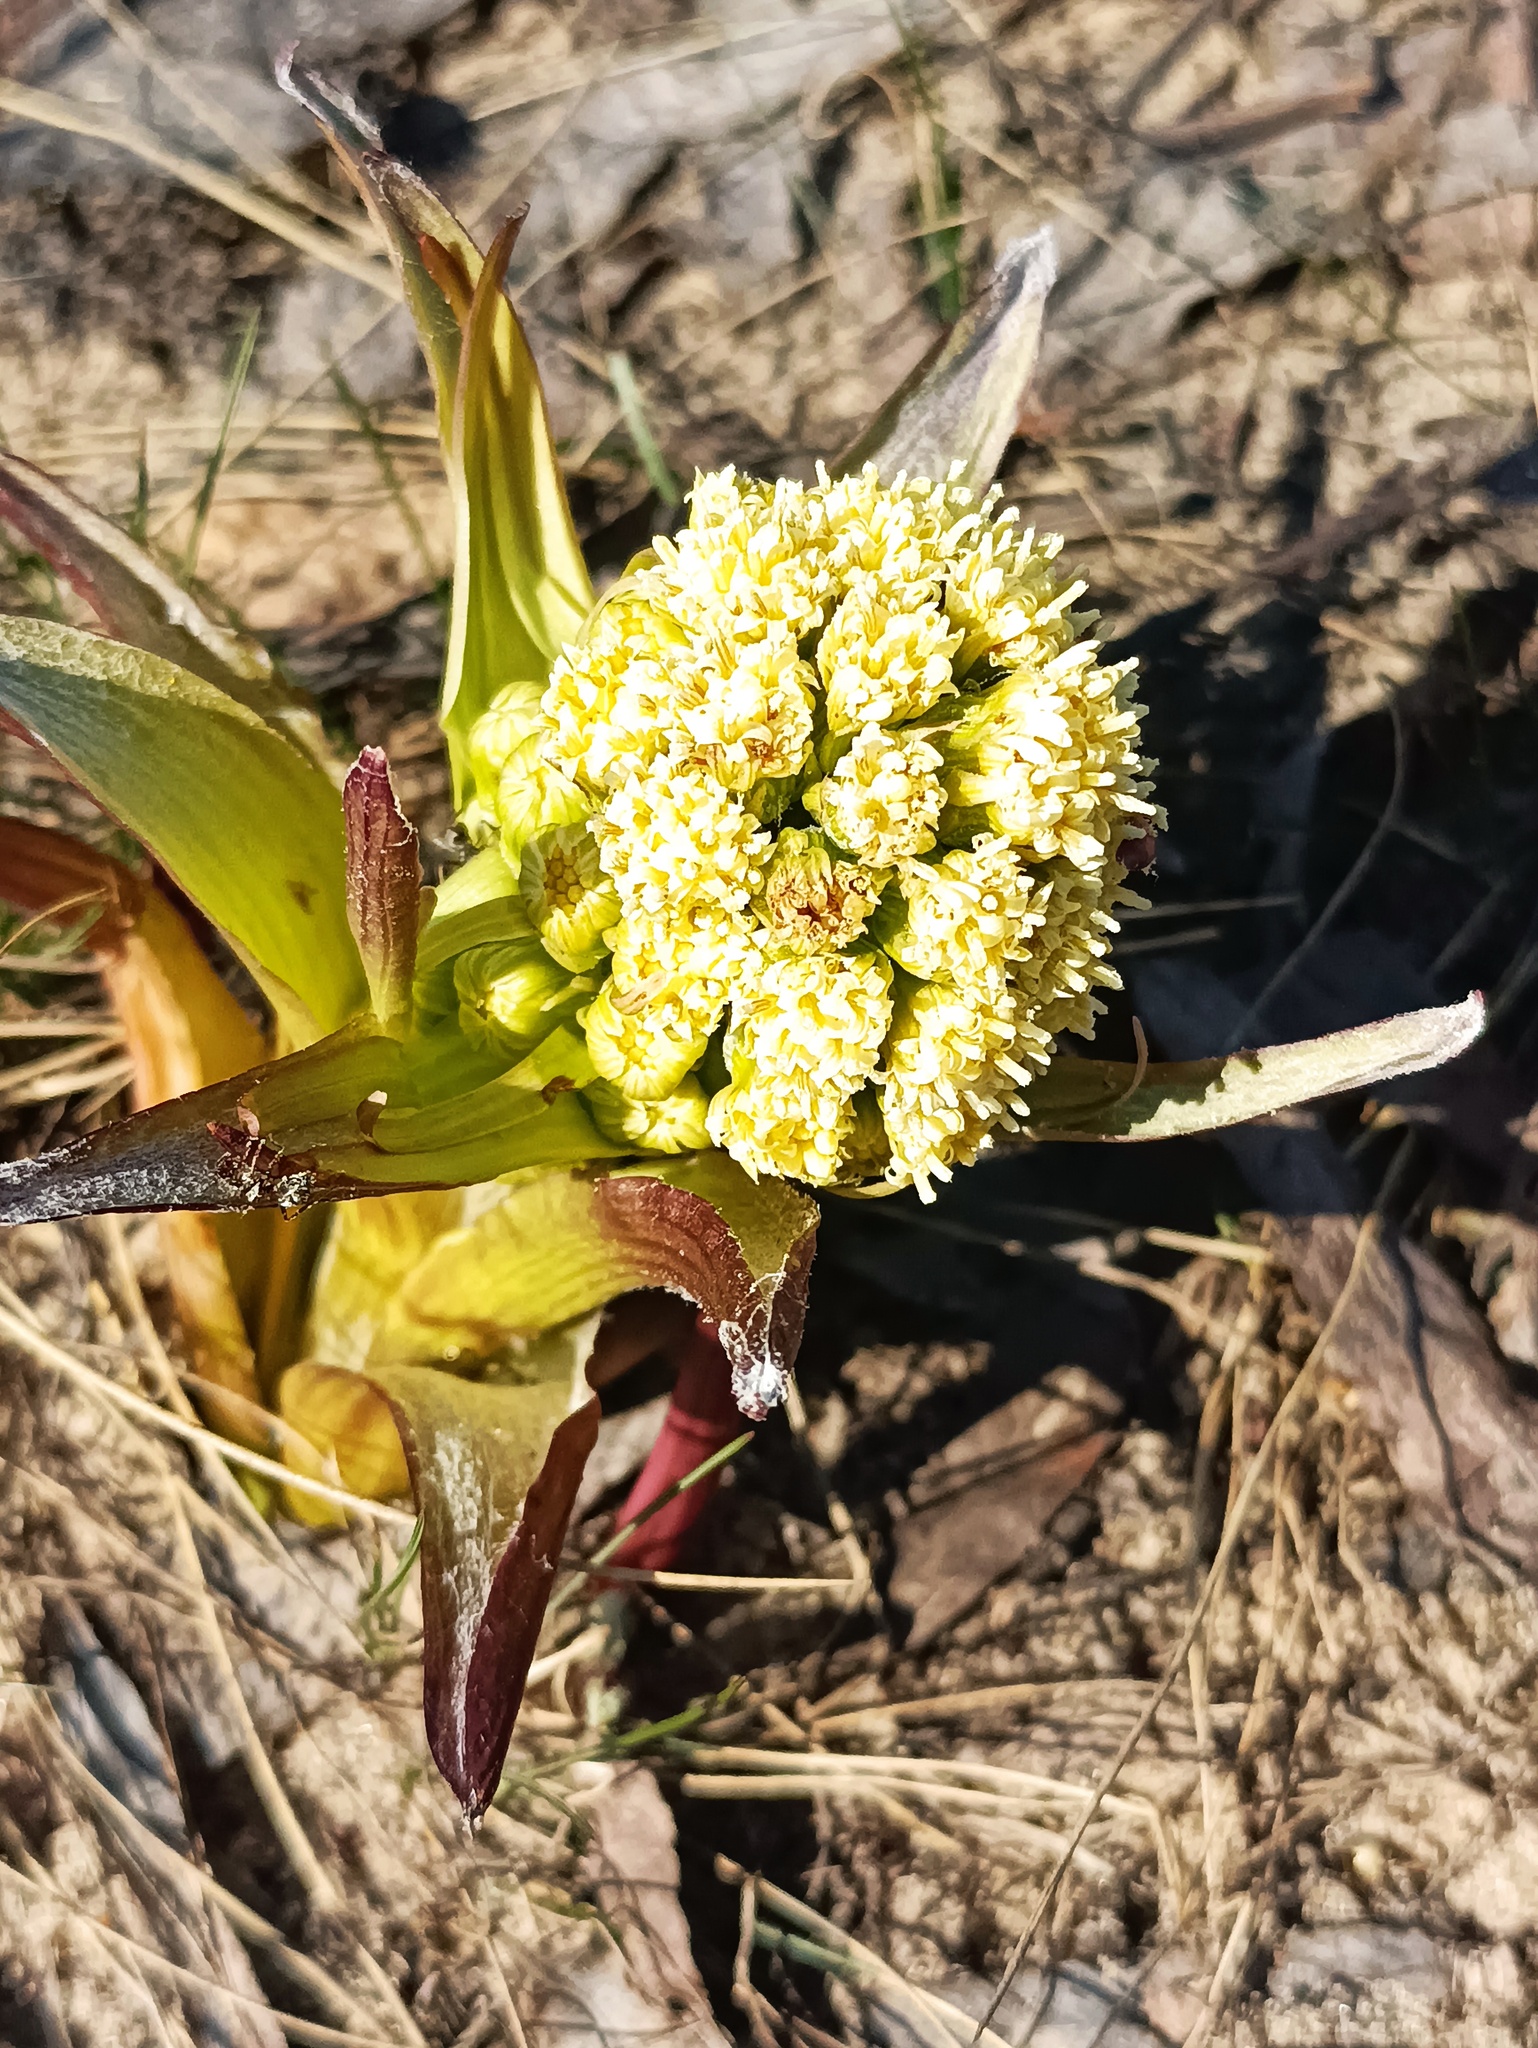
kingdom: Plantae
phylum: Tracheophyta
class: Magnoliopsida
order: Asterales
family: Asteraceae
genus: Petasites
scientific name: Petasites spurius
